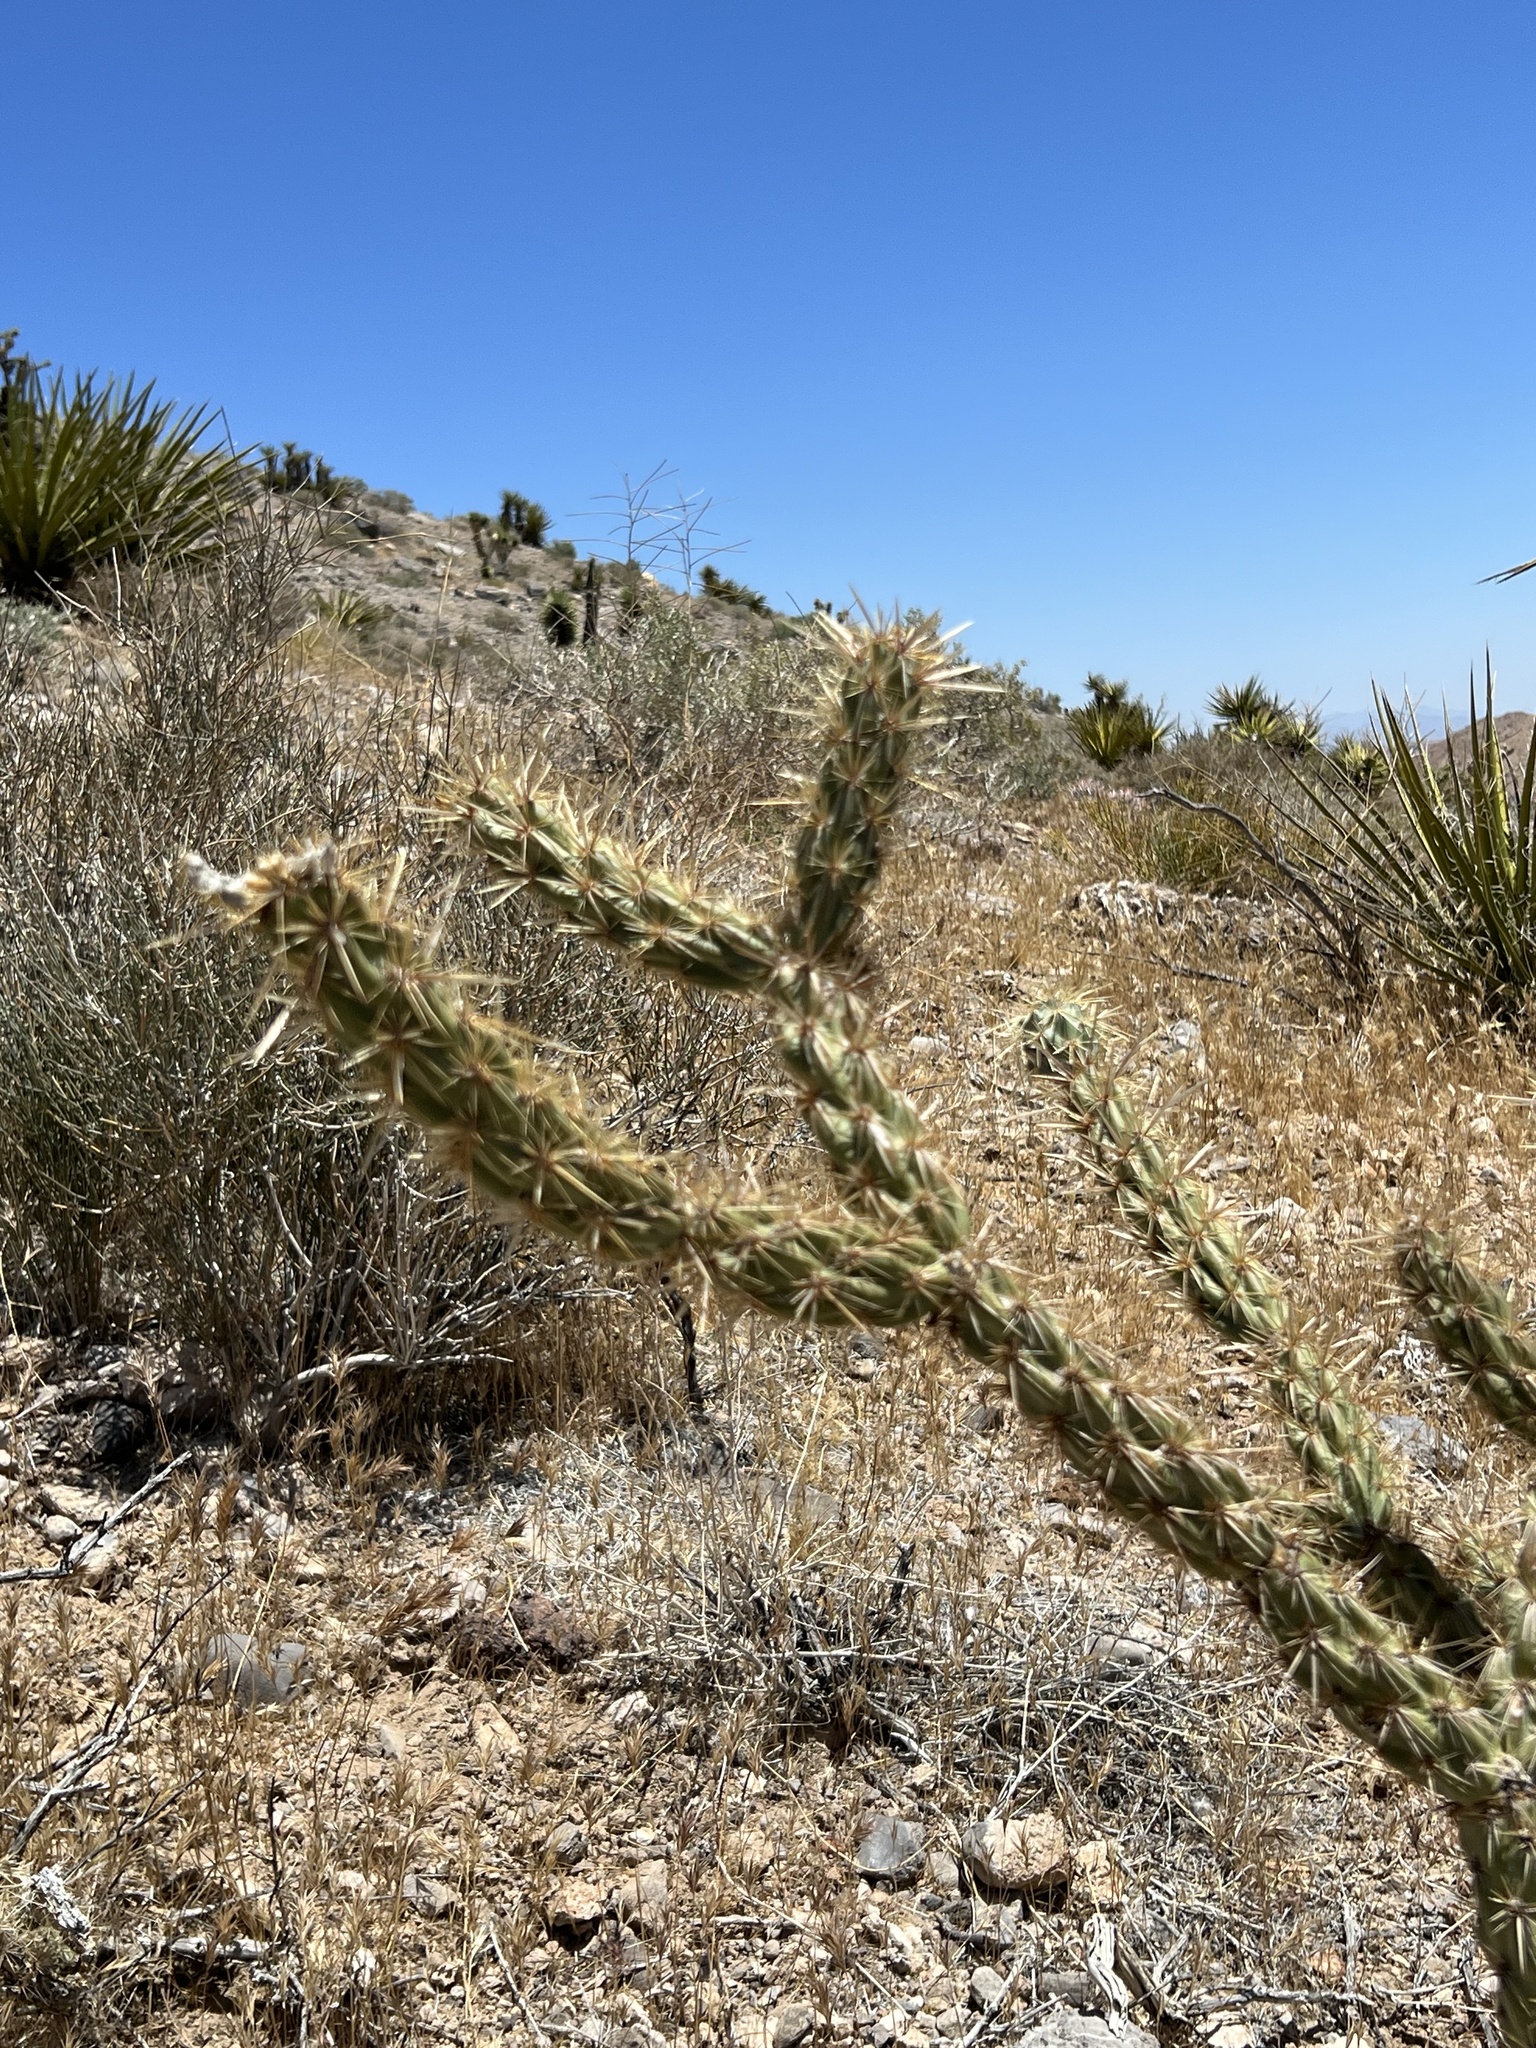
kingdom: Plantae
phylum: Tracheophyta
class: Magnoliopsida
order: Caryophyllales
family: Cactaceae
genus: Cylindropuntia
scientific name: Cylindropuntia acanthocarpa
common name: Buckhorn cholla
